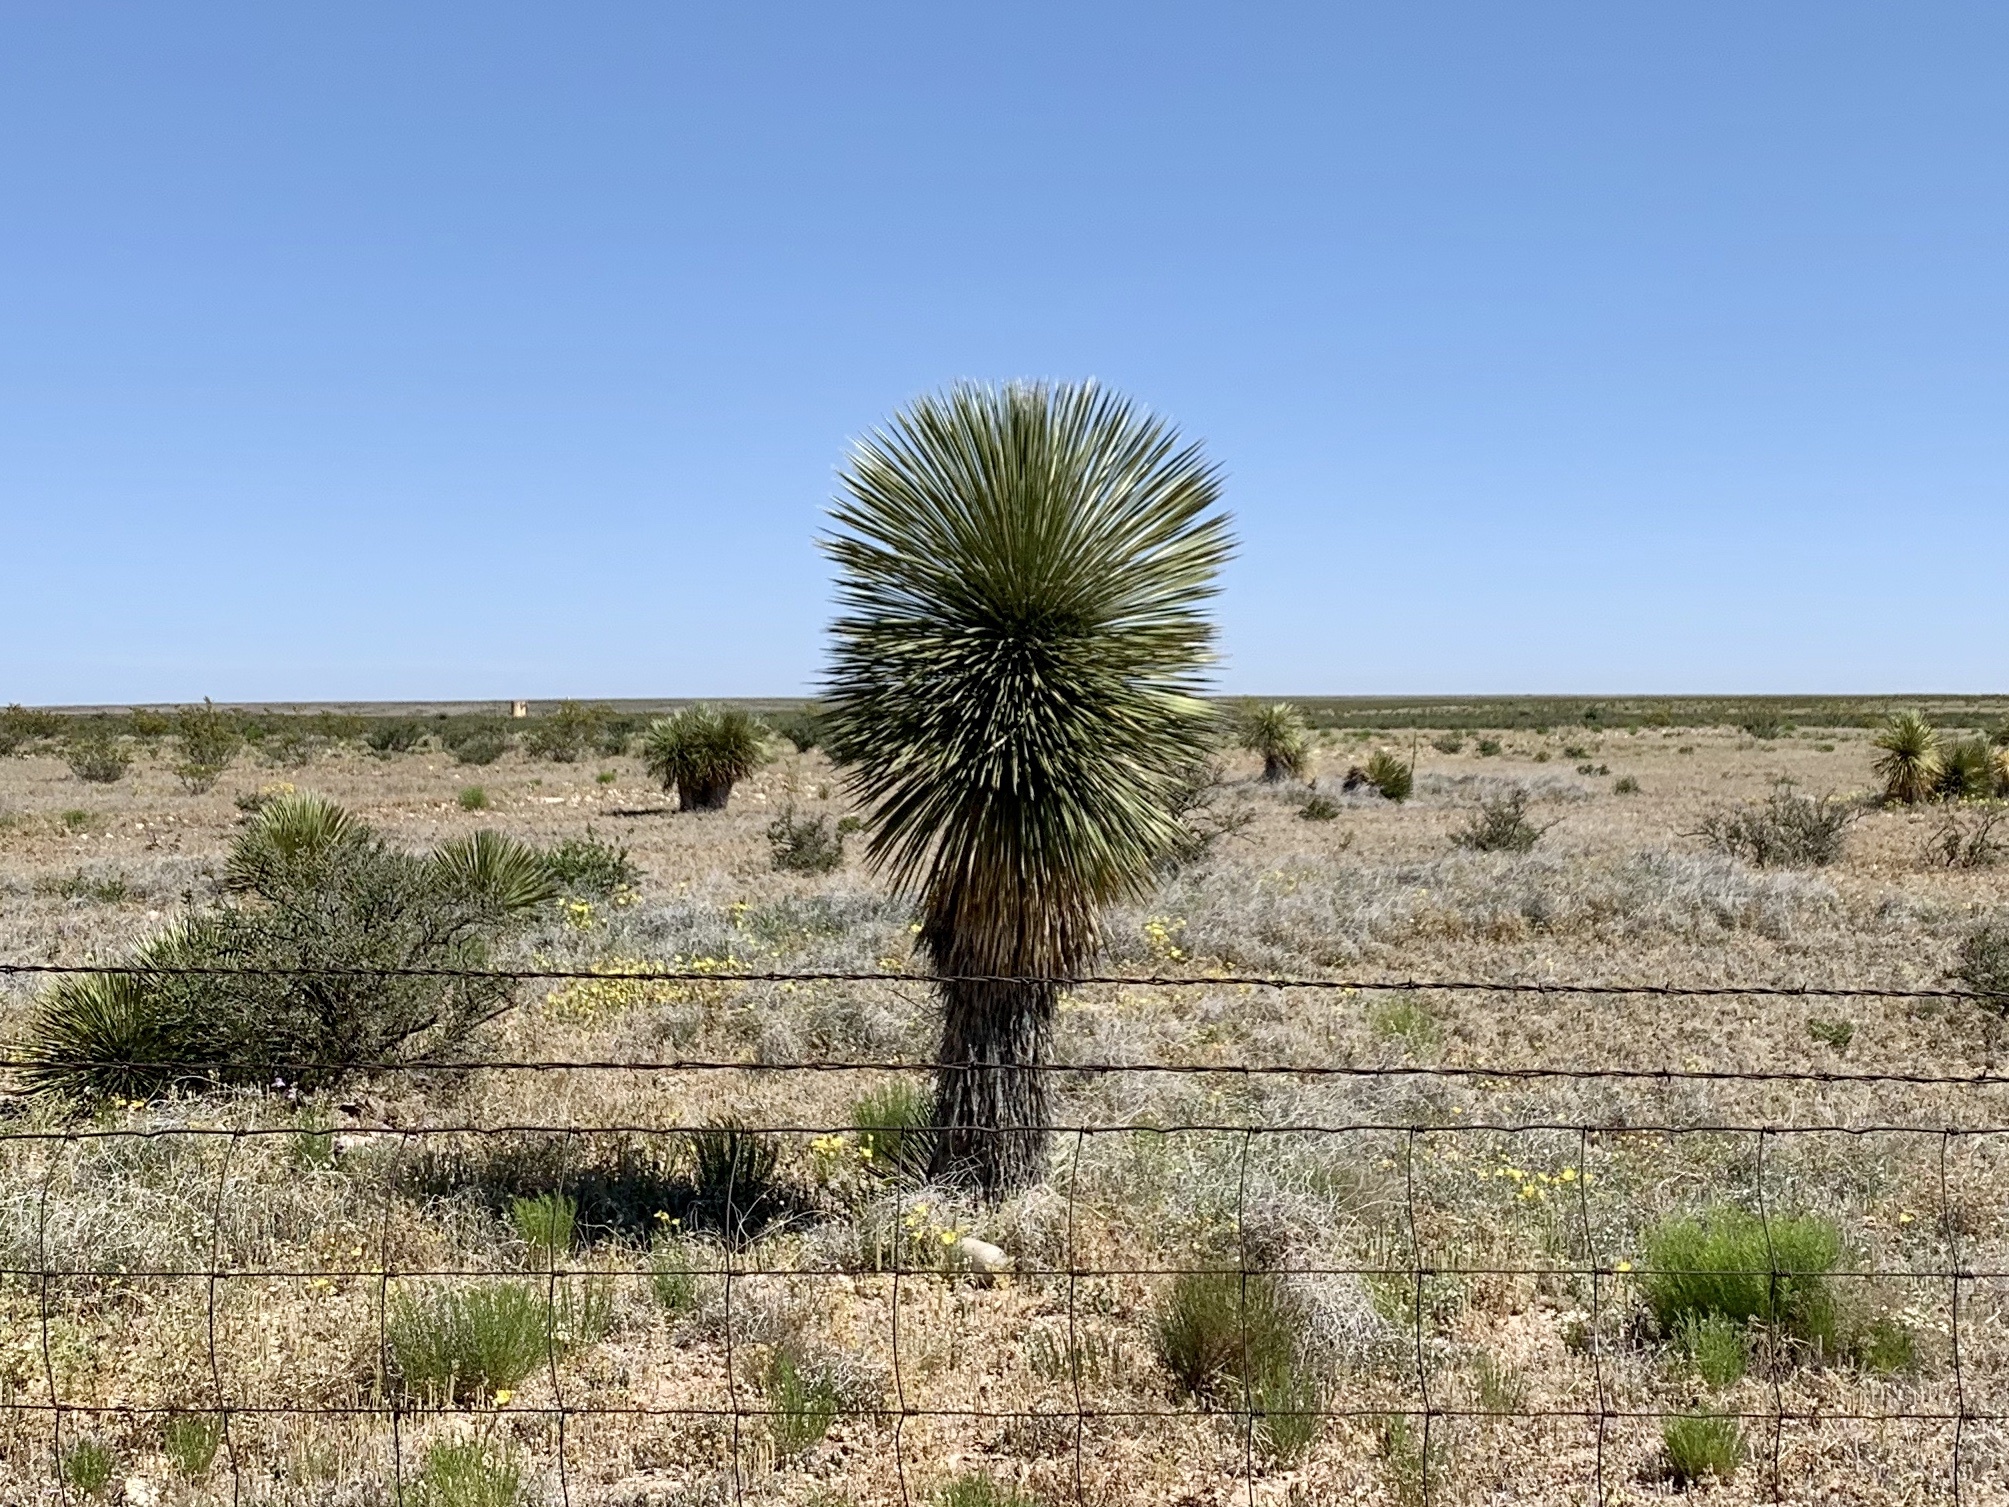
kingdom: Plantae
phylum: Tracheophyta
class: Liliopsida
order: Asparagales
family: Asparagaceae
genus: Yucca
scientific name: Yucca elata
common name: Palmella
